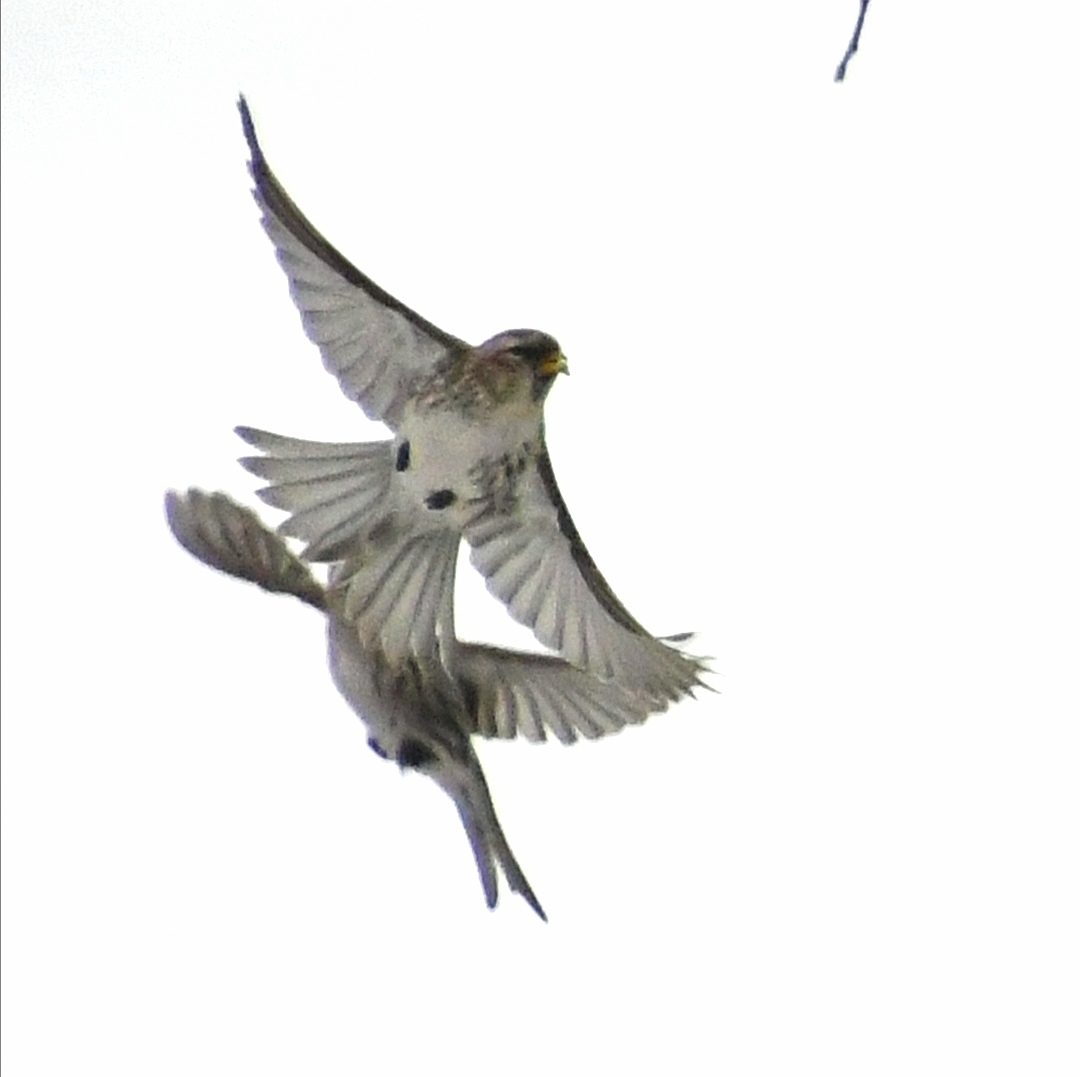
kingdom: Animalia
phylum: Chordata
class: Aves
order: Passeriformes
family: Fringillidae
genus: Acanthis
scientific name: Acanthis flammea
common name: Common redpoll
